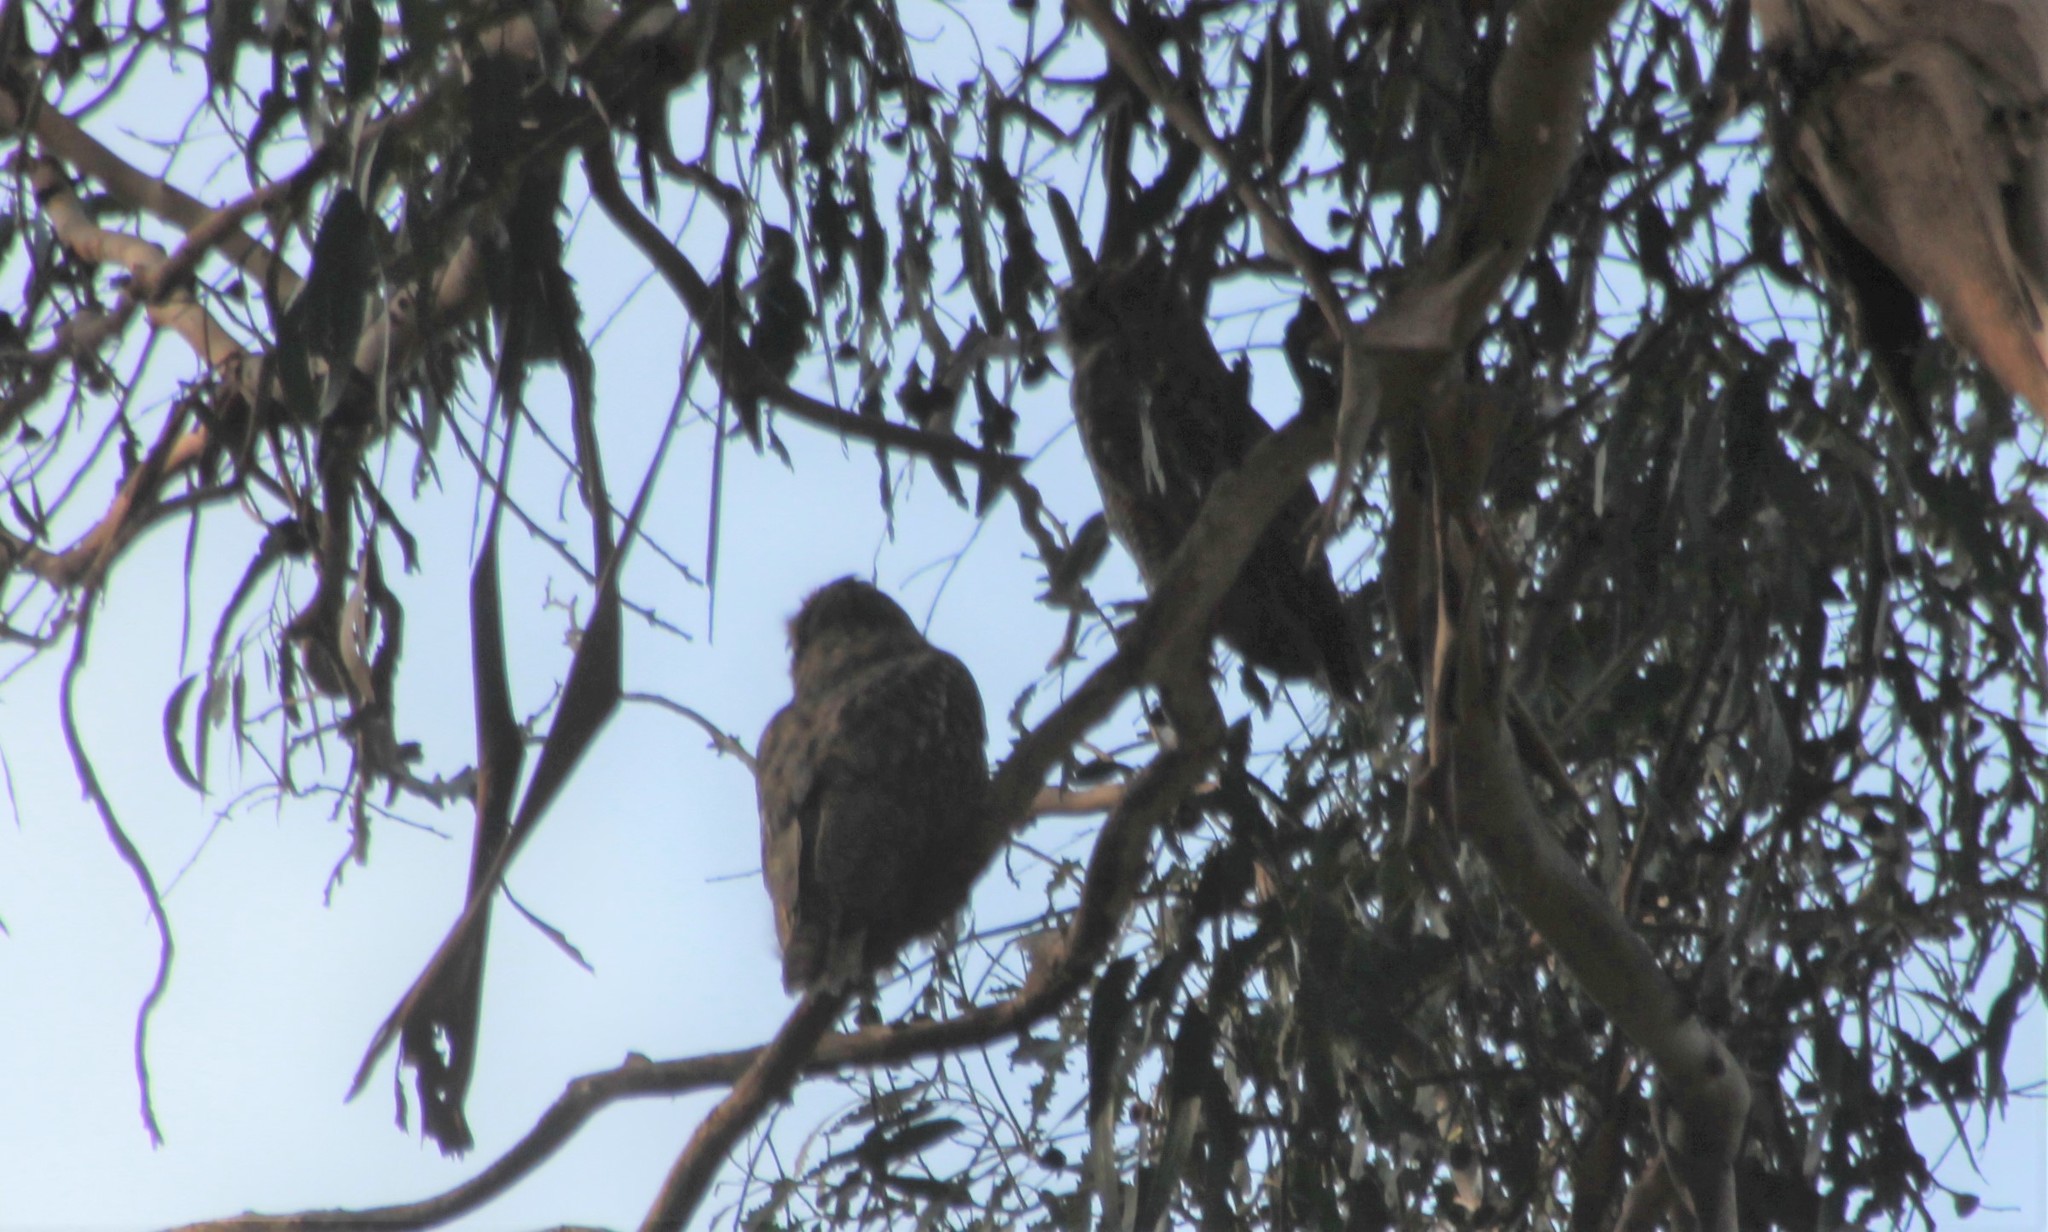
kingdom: Animalia
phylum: Chordata
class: Aves
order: Strigiformes
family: Strigidae
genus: Bubo
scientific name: Bubo virginianus
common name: Great horned owl
